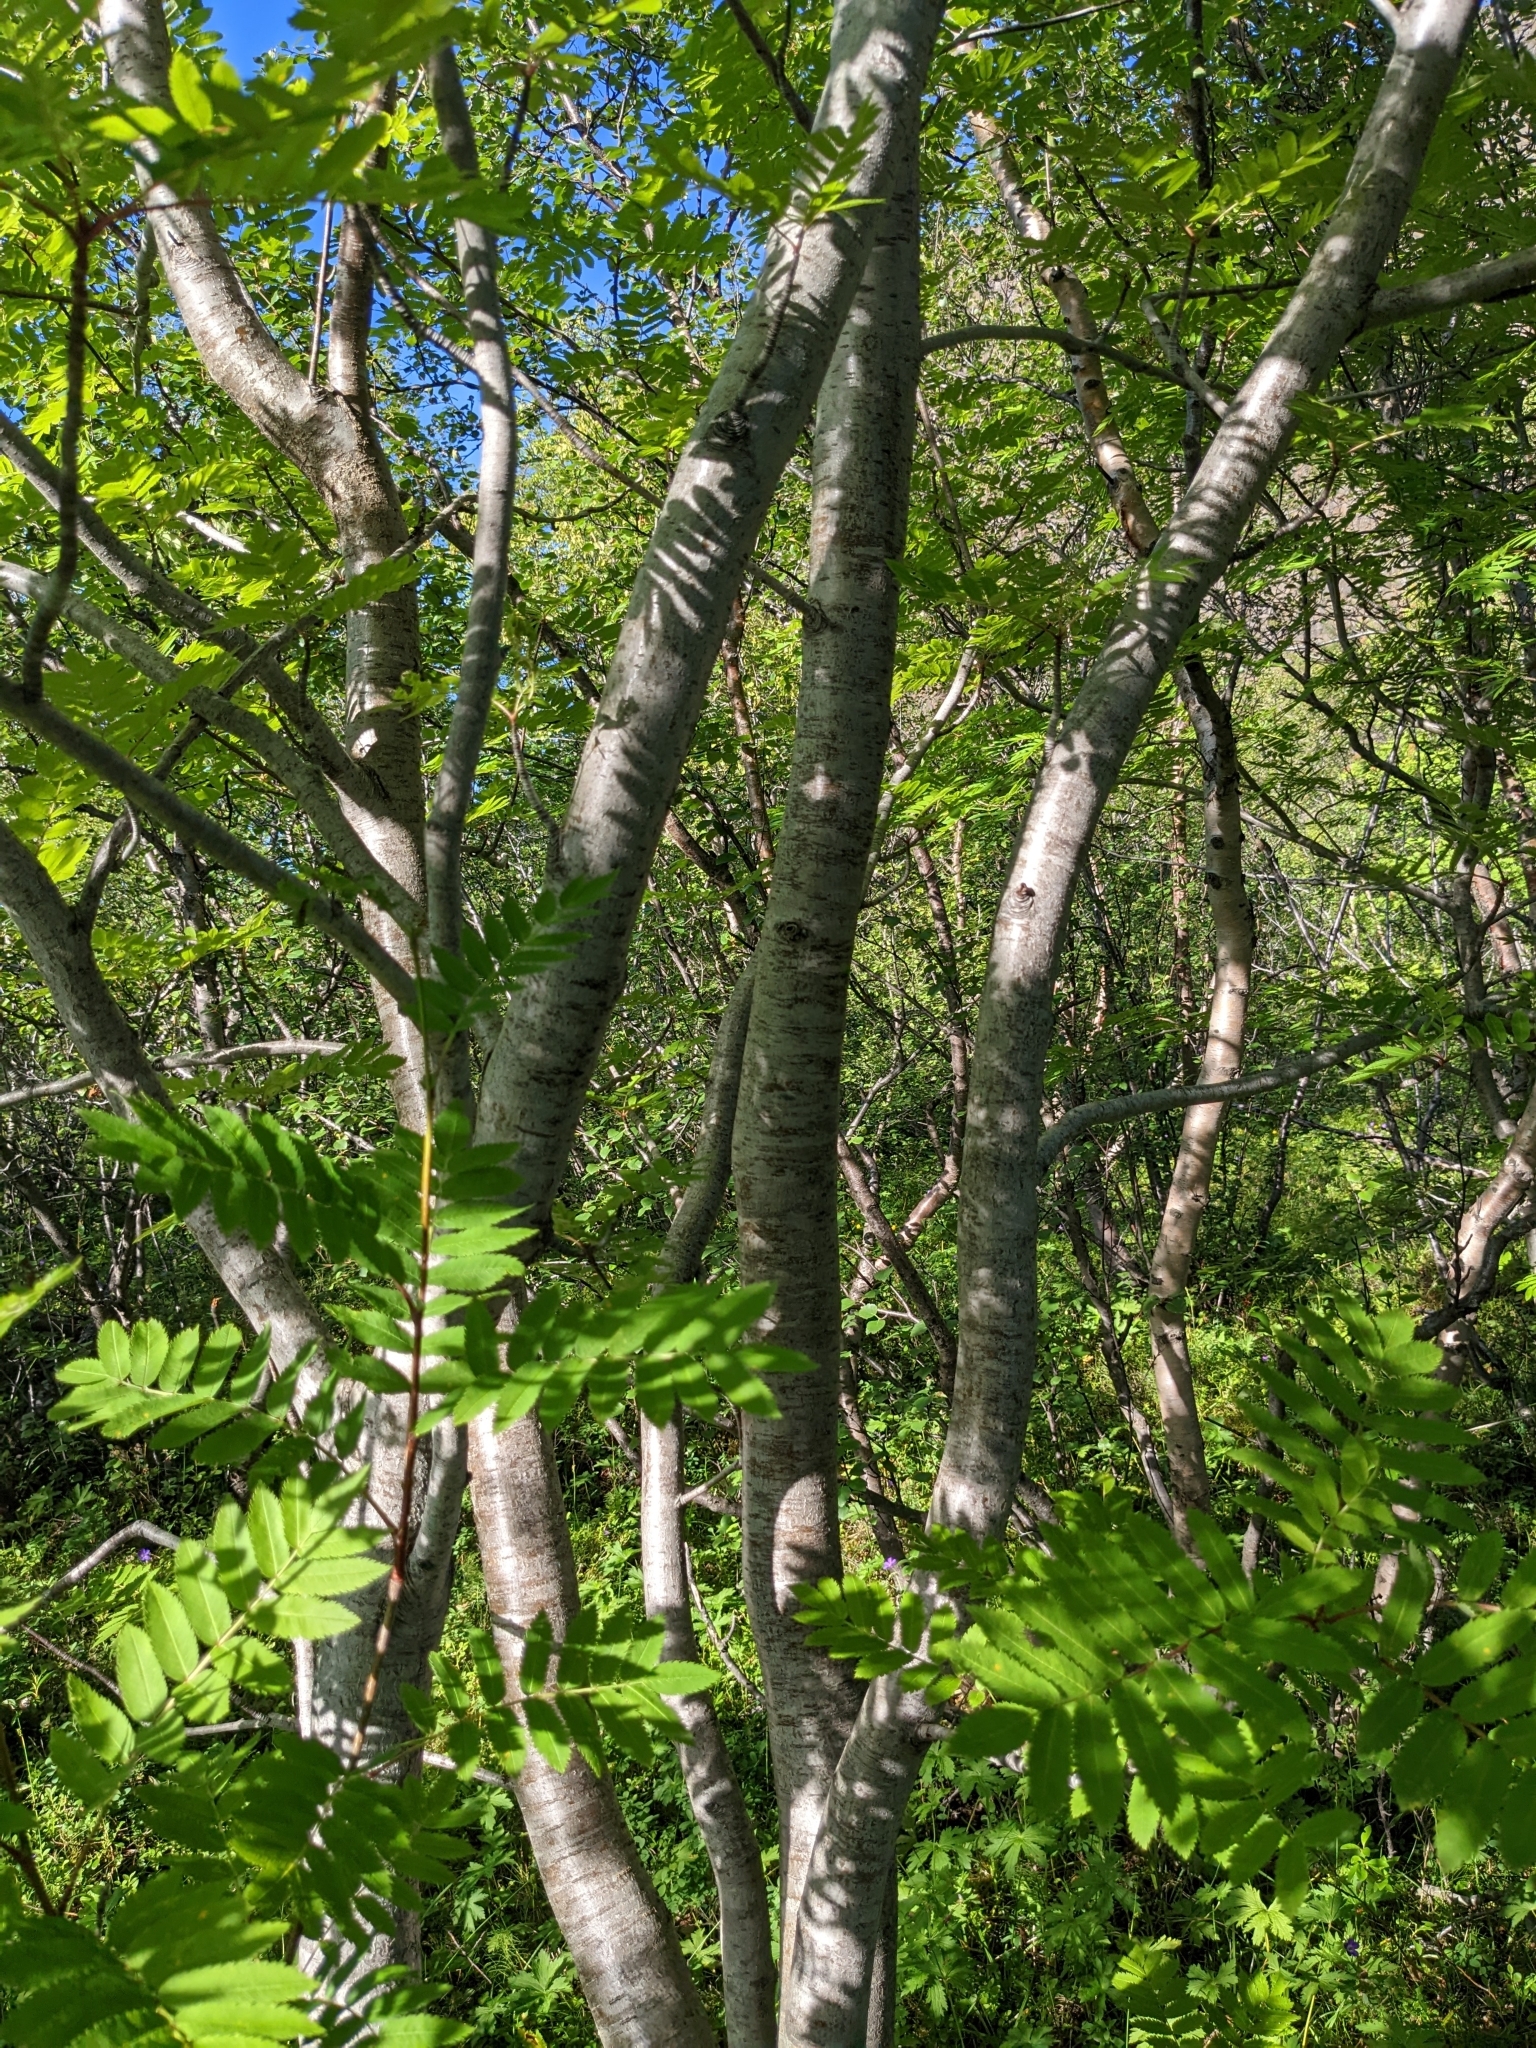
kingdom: Plantae
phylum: Tracheophyta
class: Magnoliopsida
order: Rosales
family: Rosaceae
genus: Sorbus
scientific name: Sorbus aucuparia
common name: Rowan
